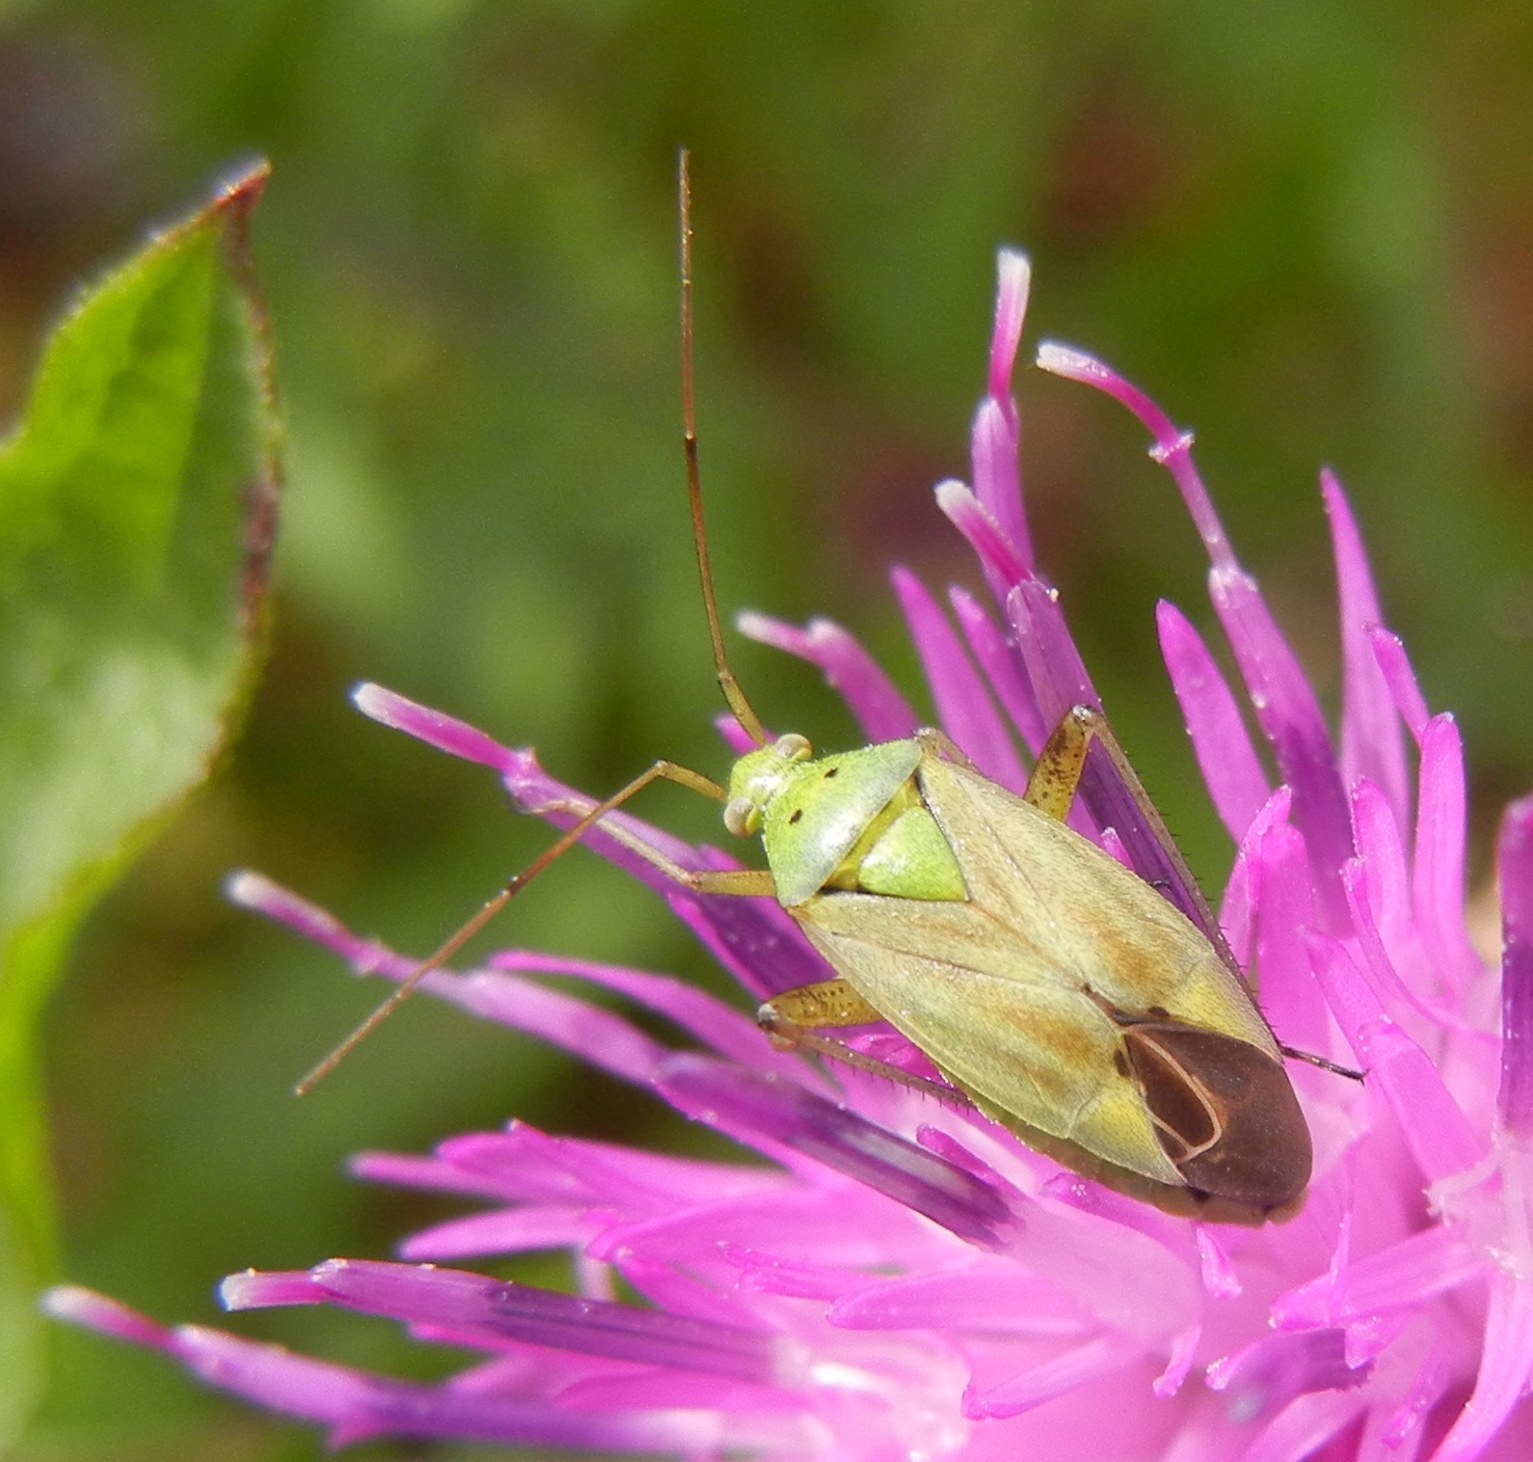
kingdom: Animalia
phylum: Arthropoda
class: Insecta
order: Hemiptera
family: Miridae
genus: Closterotomus
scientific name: Closterotomus norvegicus
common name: Plant bug
